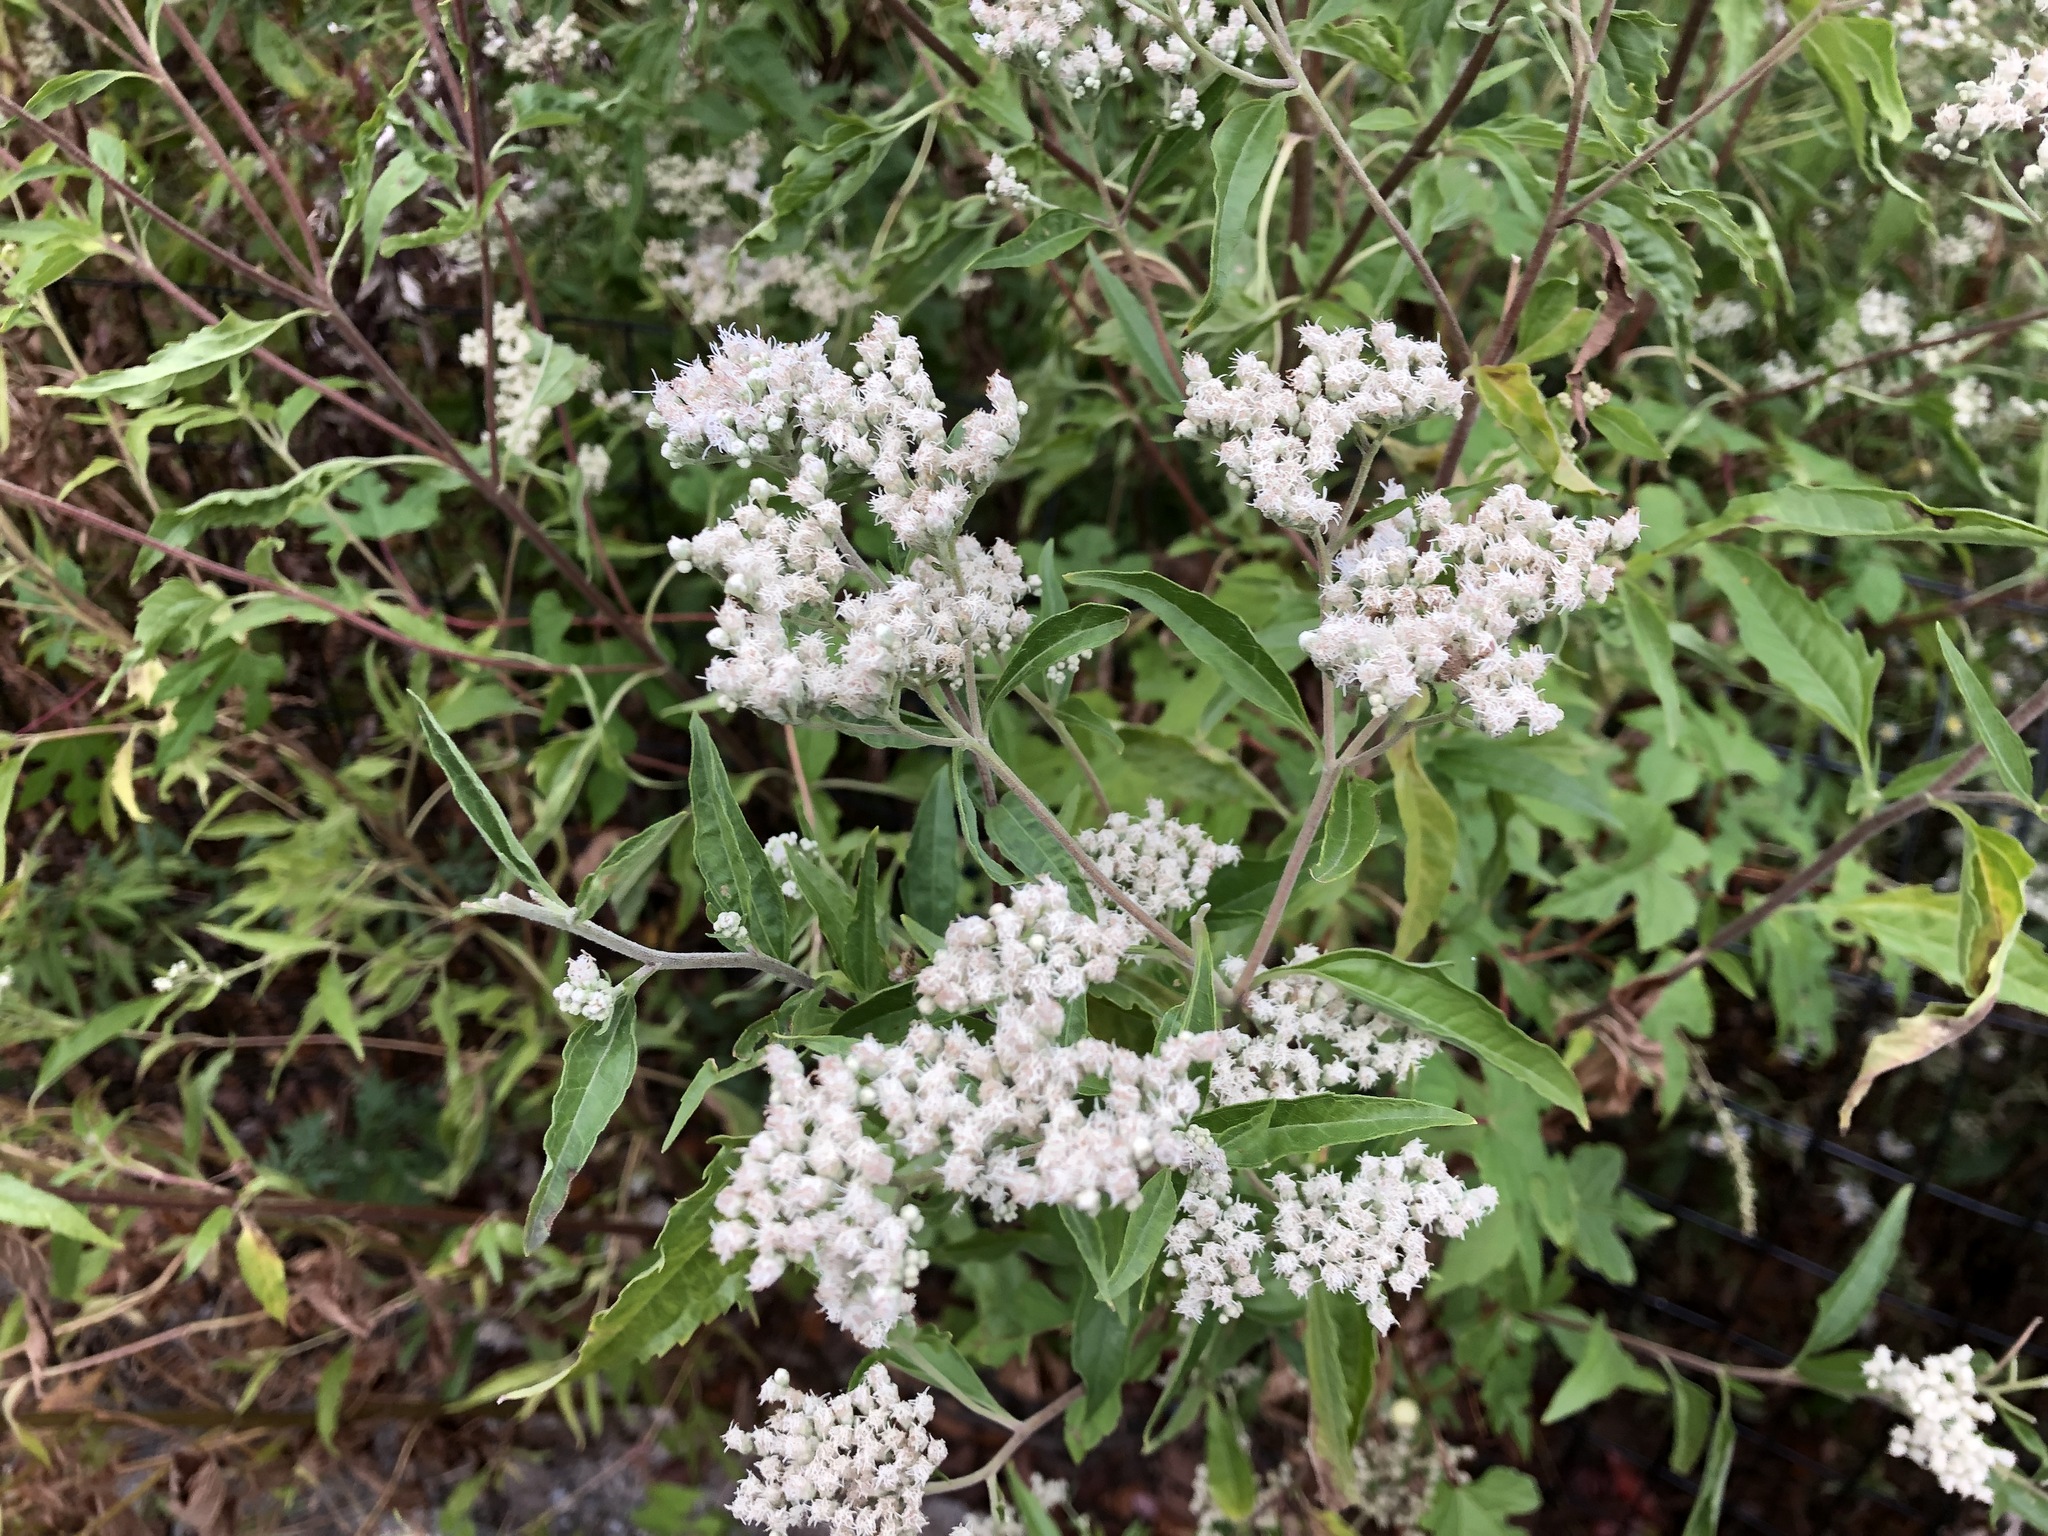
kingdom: Plantae
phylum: Tracheophyta
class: Magnoliopsida
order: Asterales
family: Asteraceae
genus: Eupatorium
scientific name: Eupatorium serotinum
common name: Late boneset
